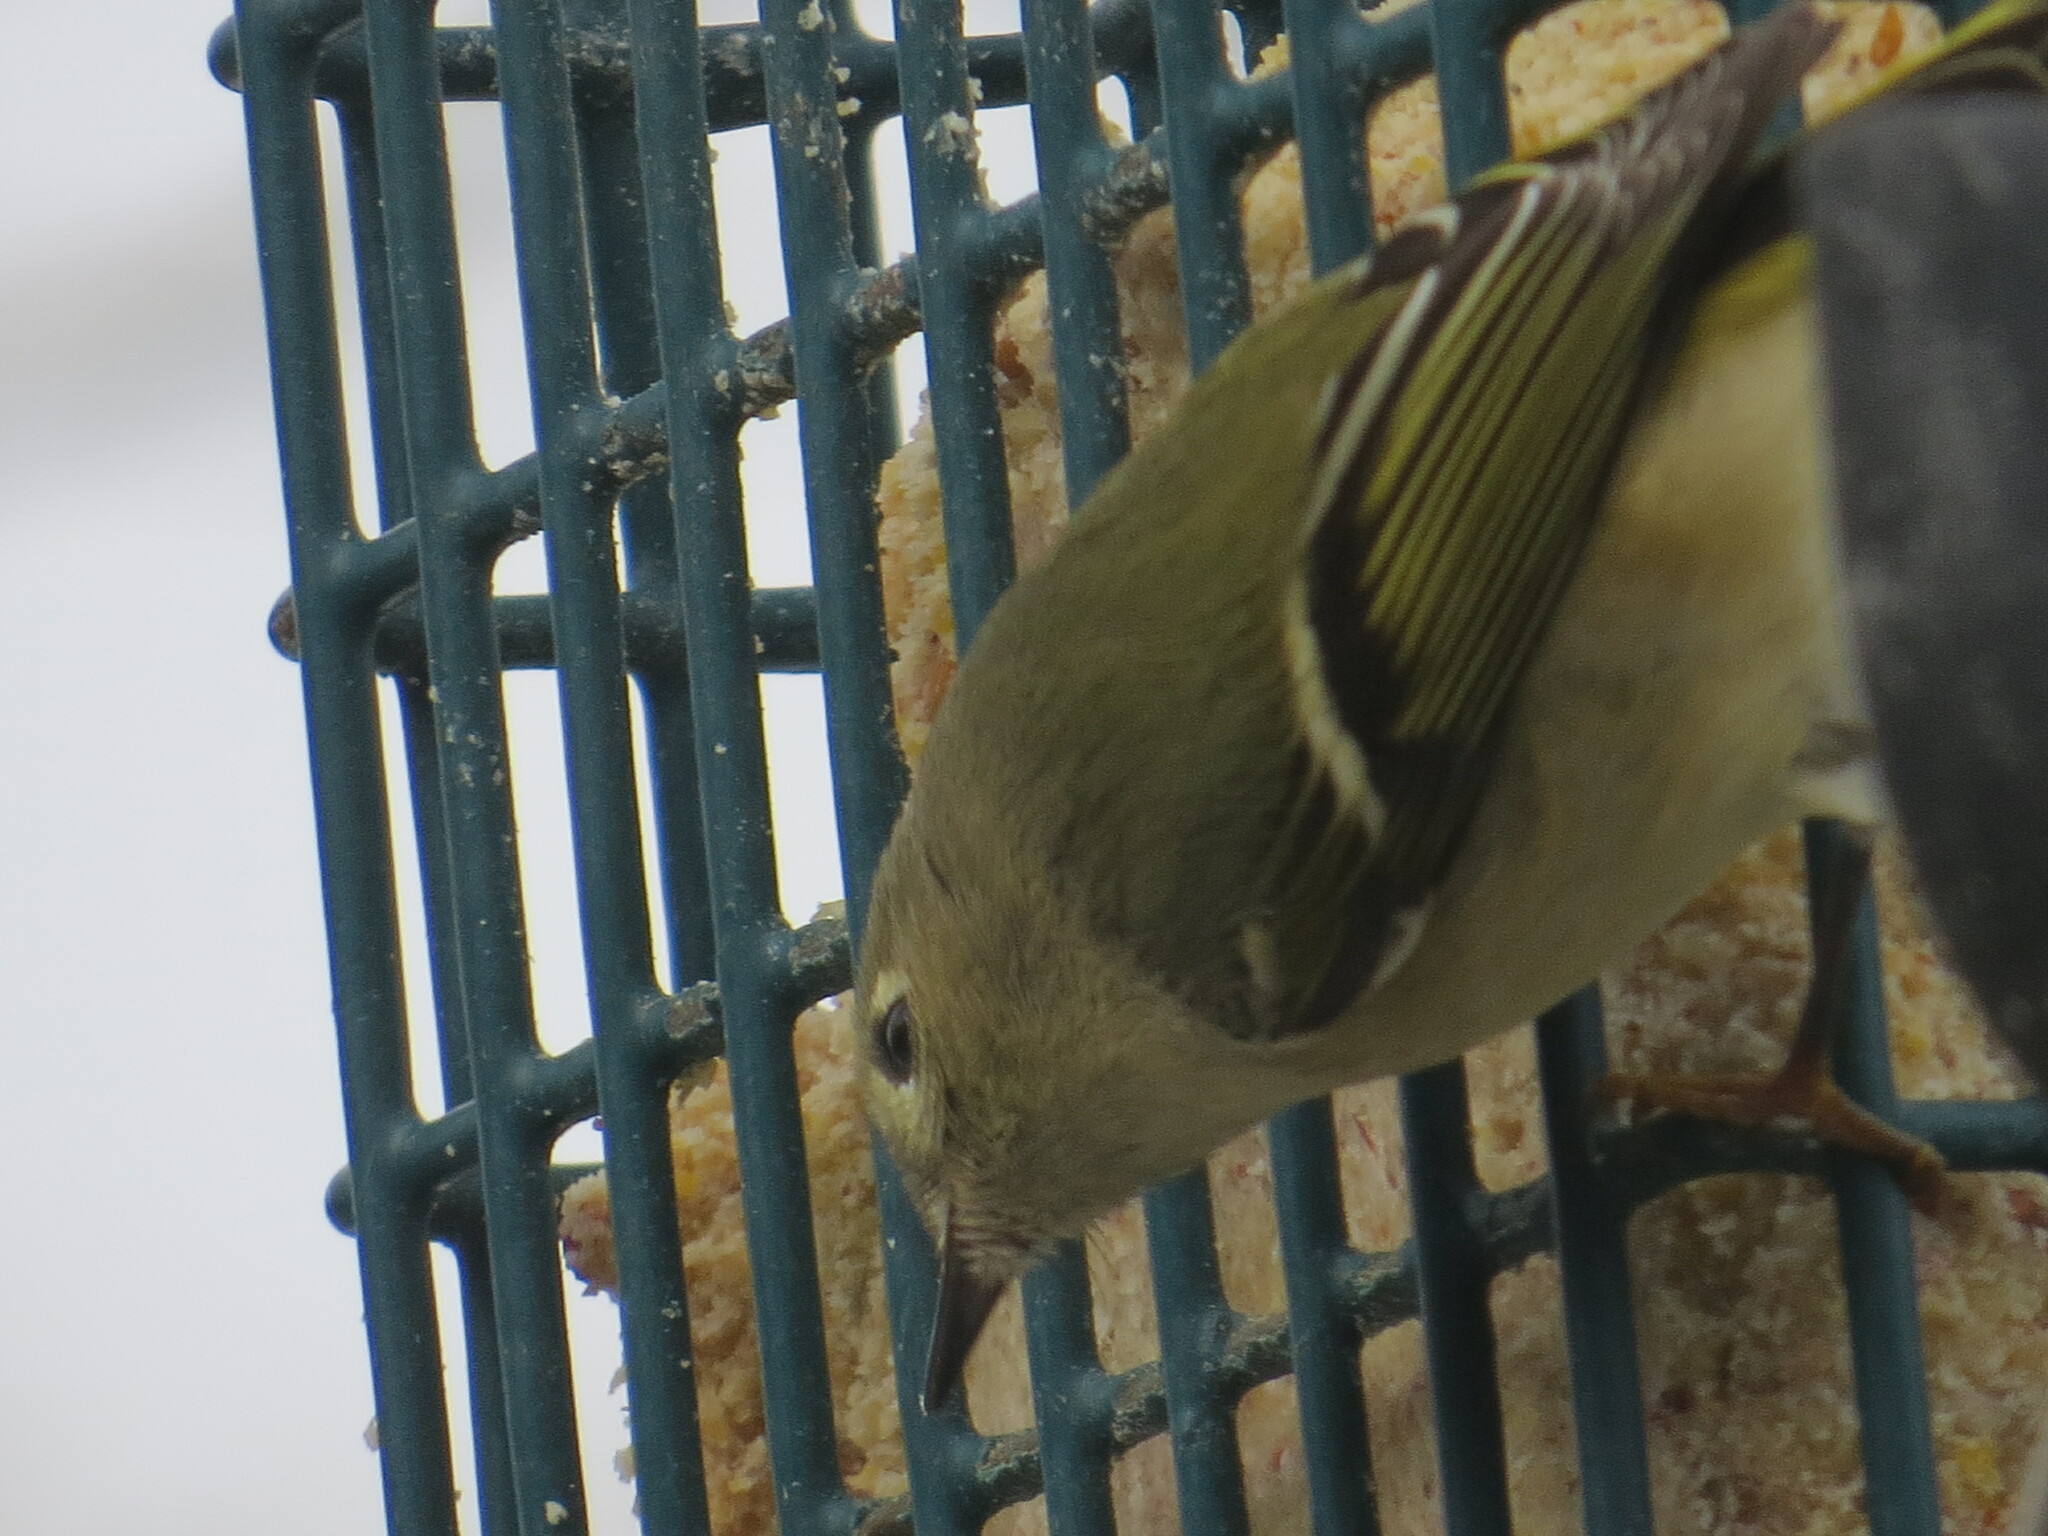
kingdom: Animalia
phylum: Chordata
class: Aves
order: Passeriformes
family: Regulidae
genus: Regulus
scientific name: Regulus calendula
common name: Ruby-crowned kinglet
